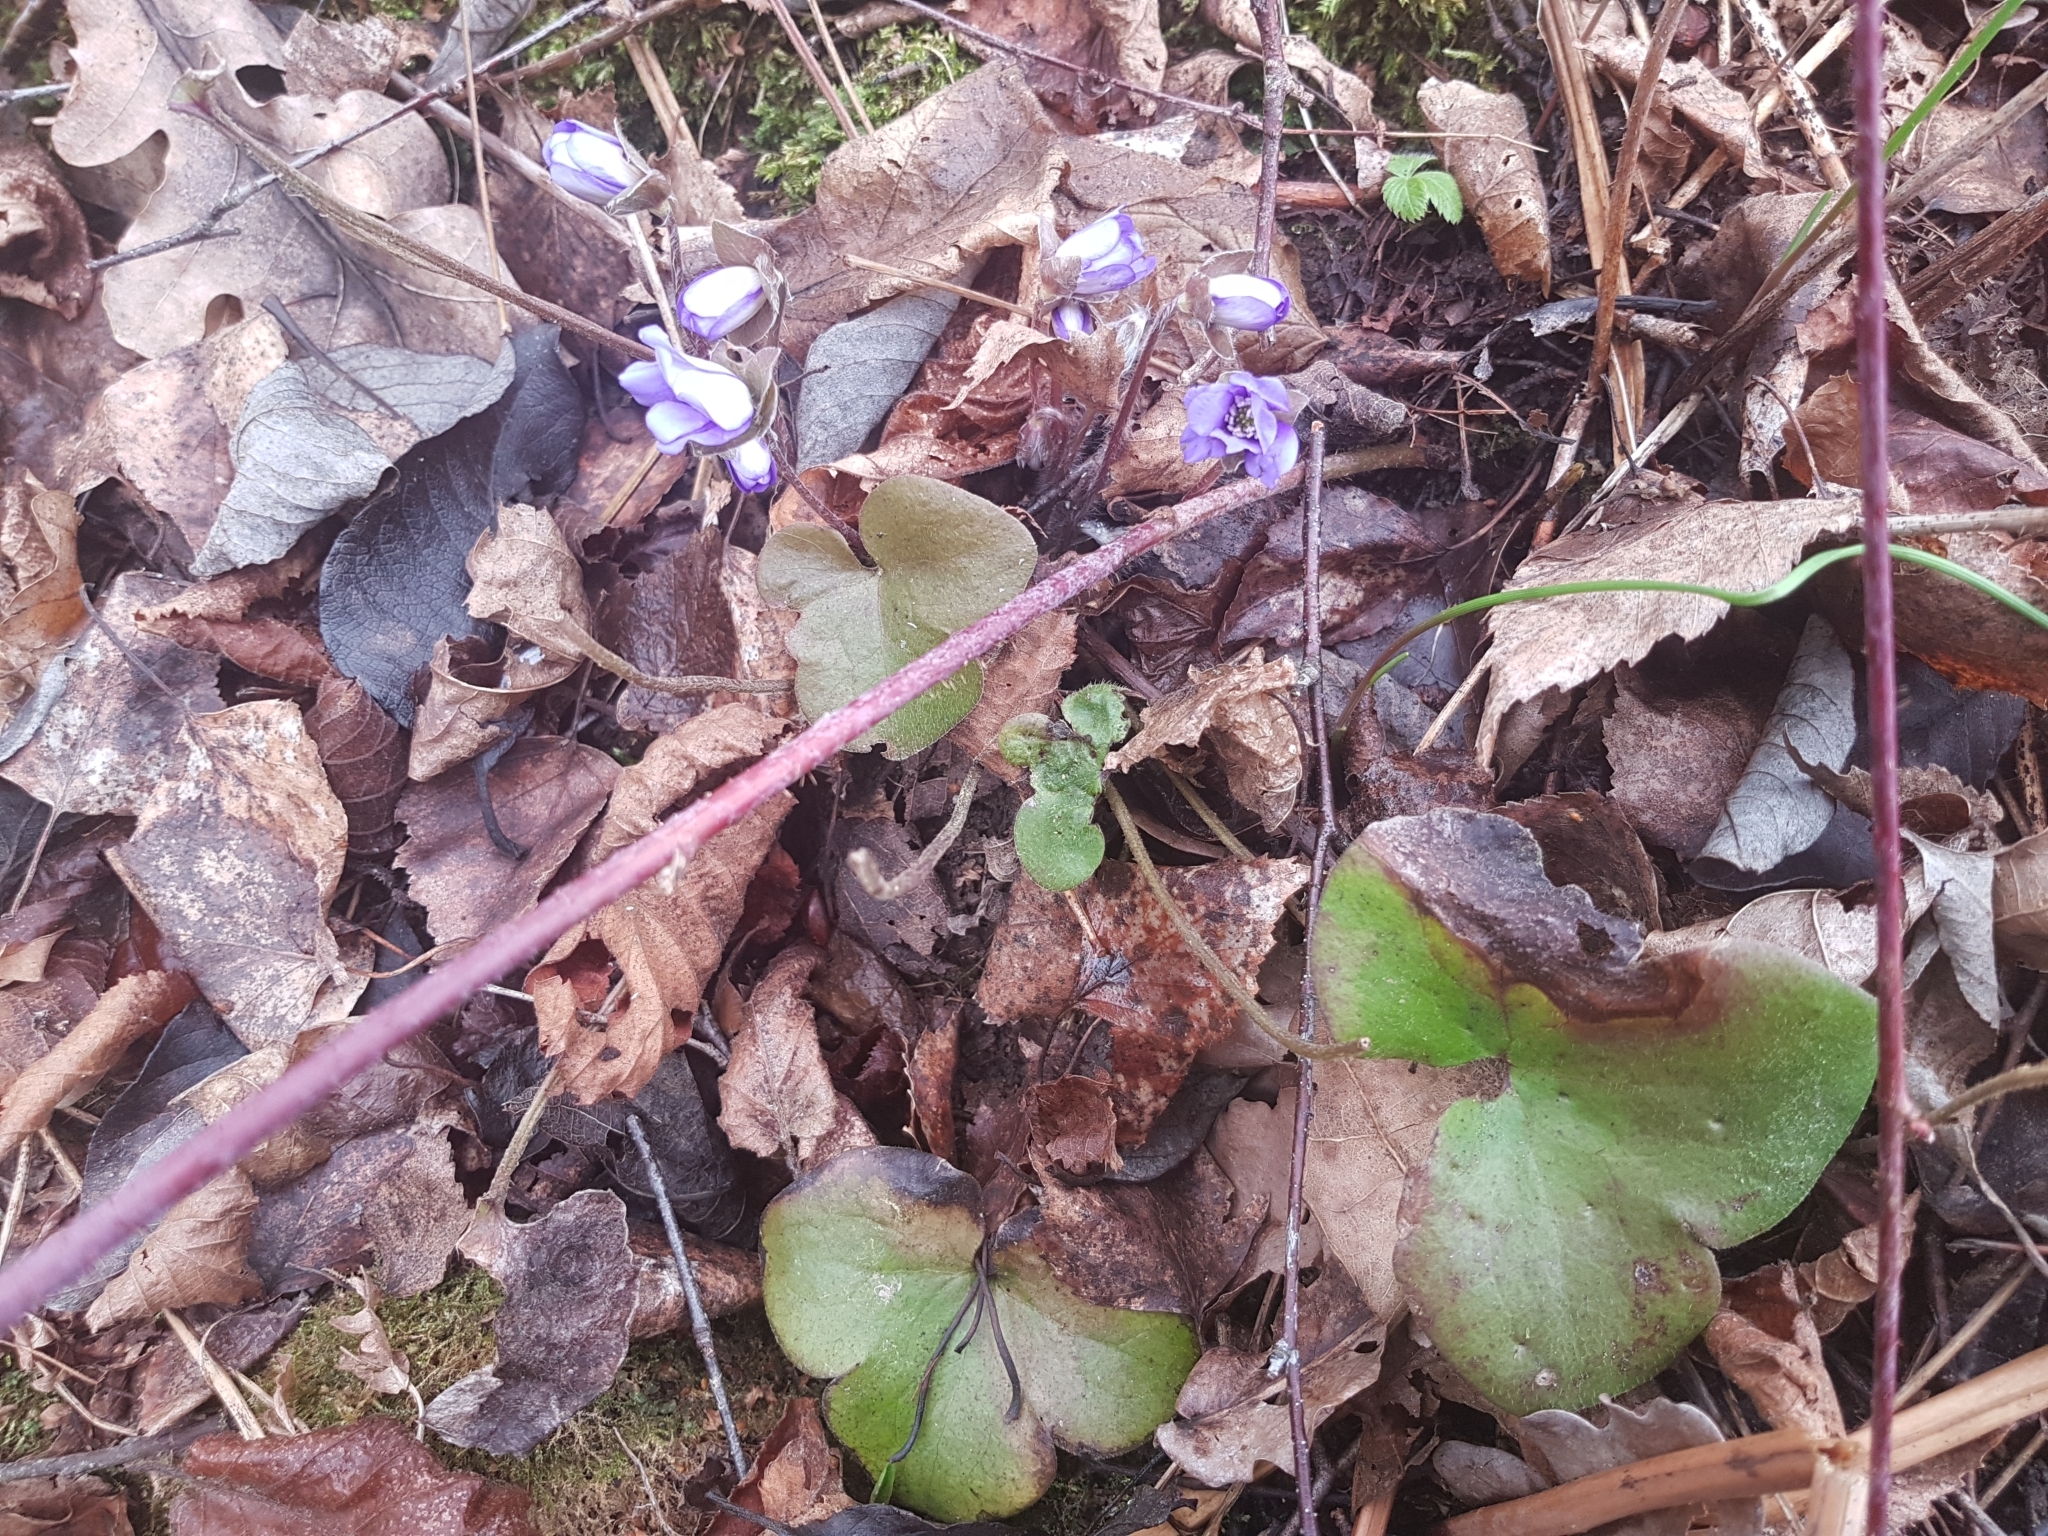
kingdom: Plantae
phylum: Tracheophyta
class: Magnoliopsida
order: Ranunculales
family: Ranunculaceae
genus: Hepatica
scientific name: Hepatica nobilis
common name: Liverleaf
